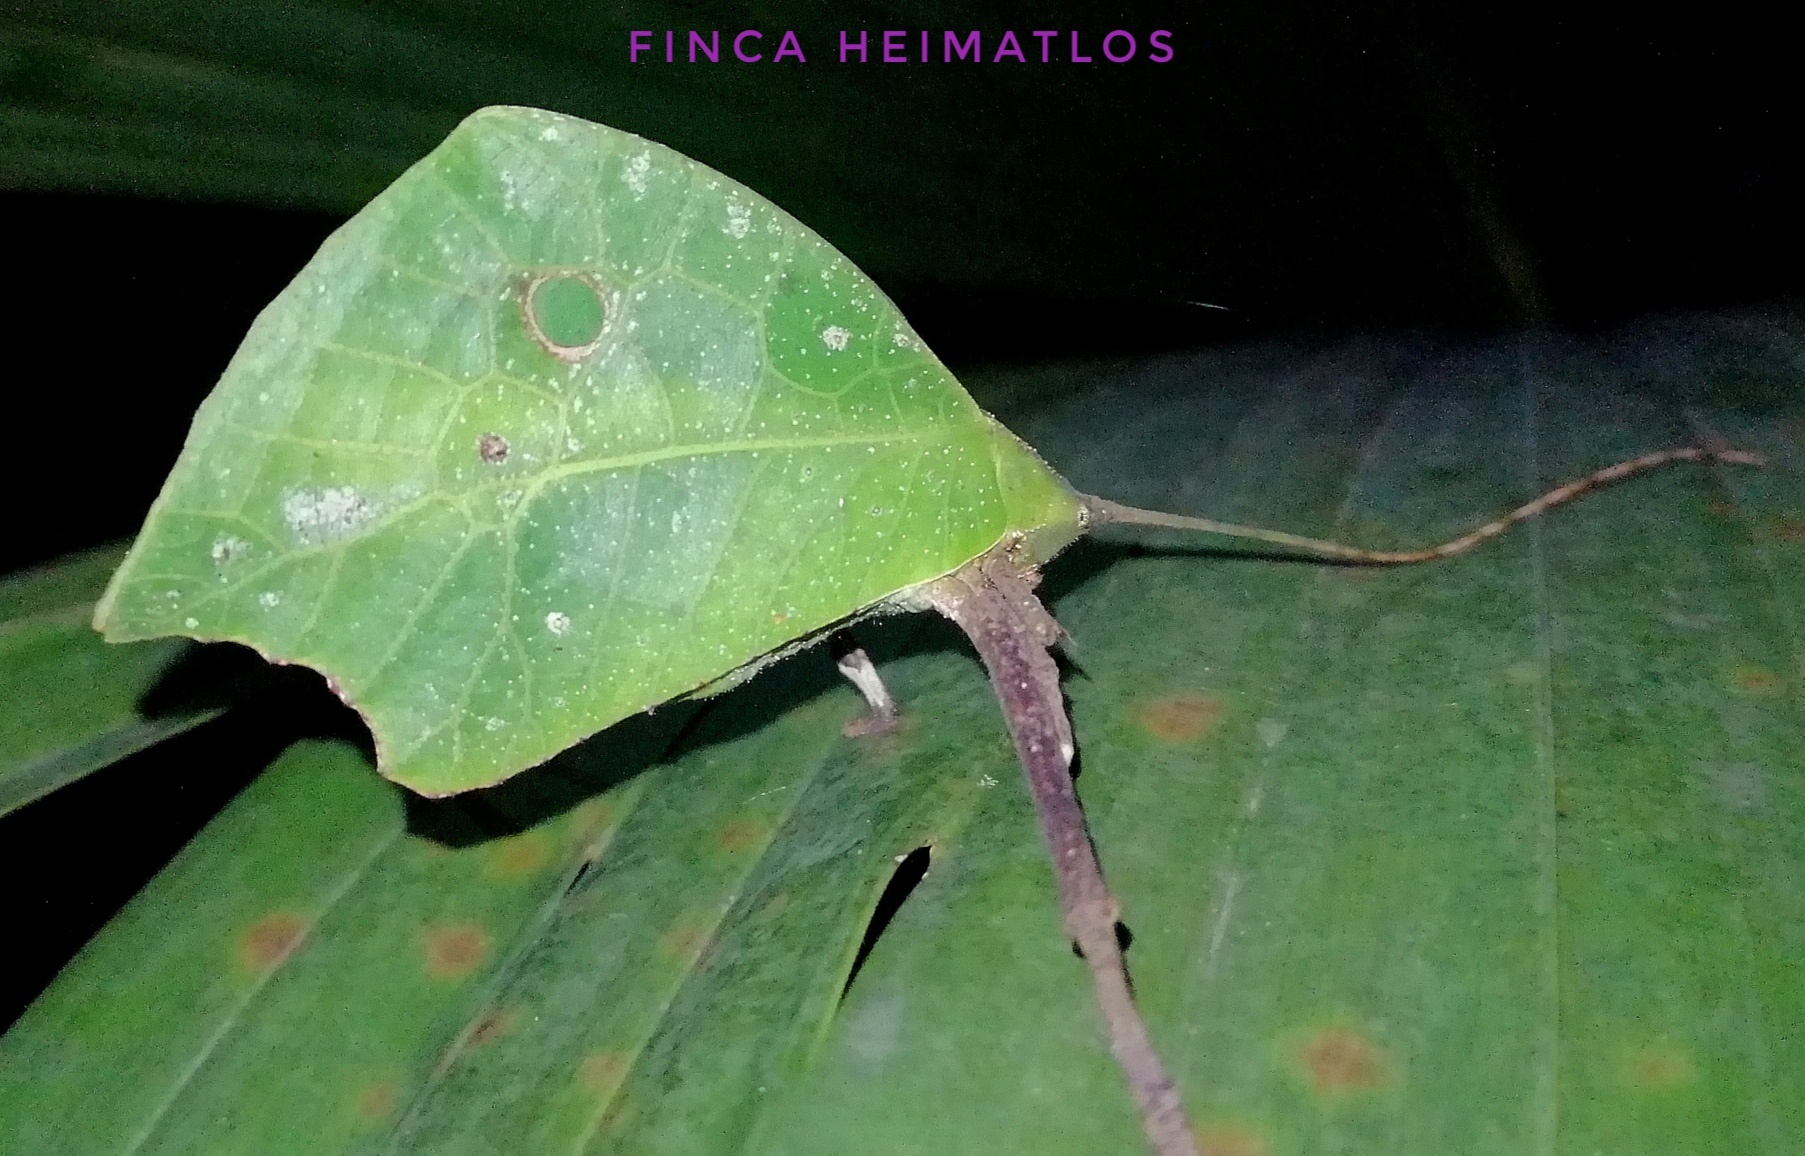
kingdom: Animalia
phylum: Arthropoda
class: Insecta
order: Orthoptera
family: Tettigoniidae
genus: Typophyllum
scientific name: Typophyllum mortuifolium
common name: Common little walking leaf
